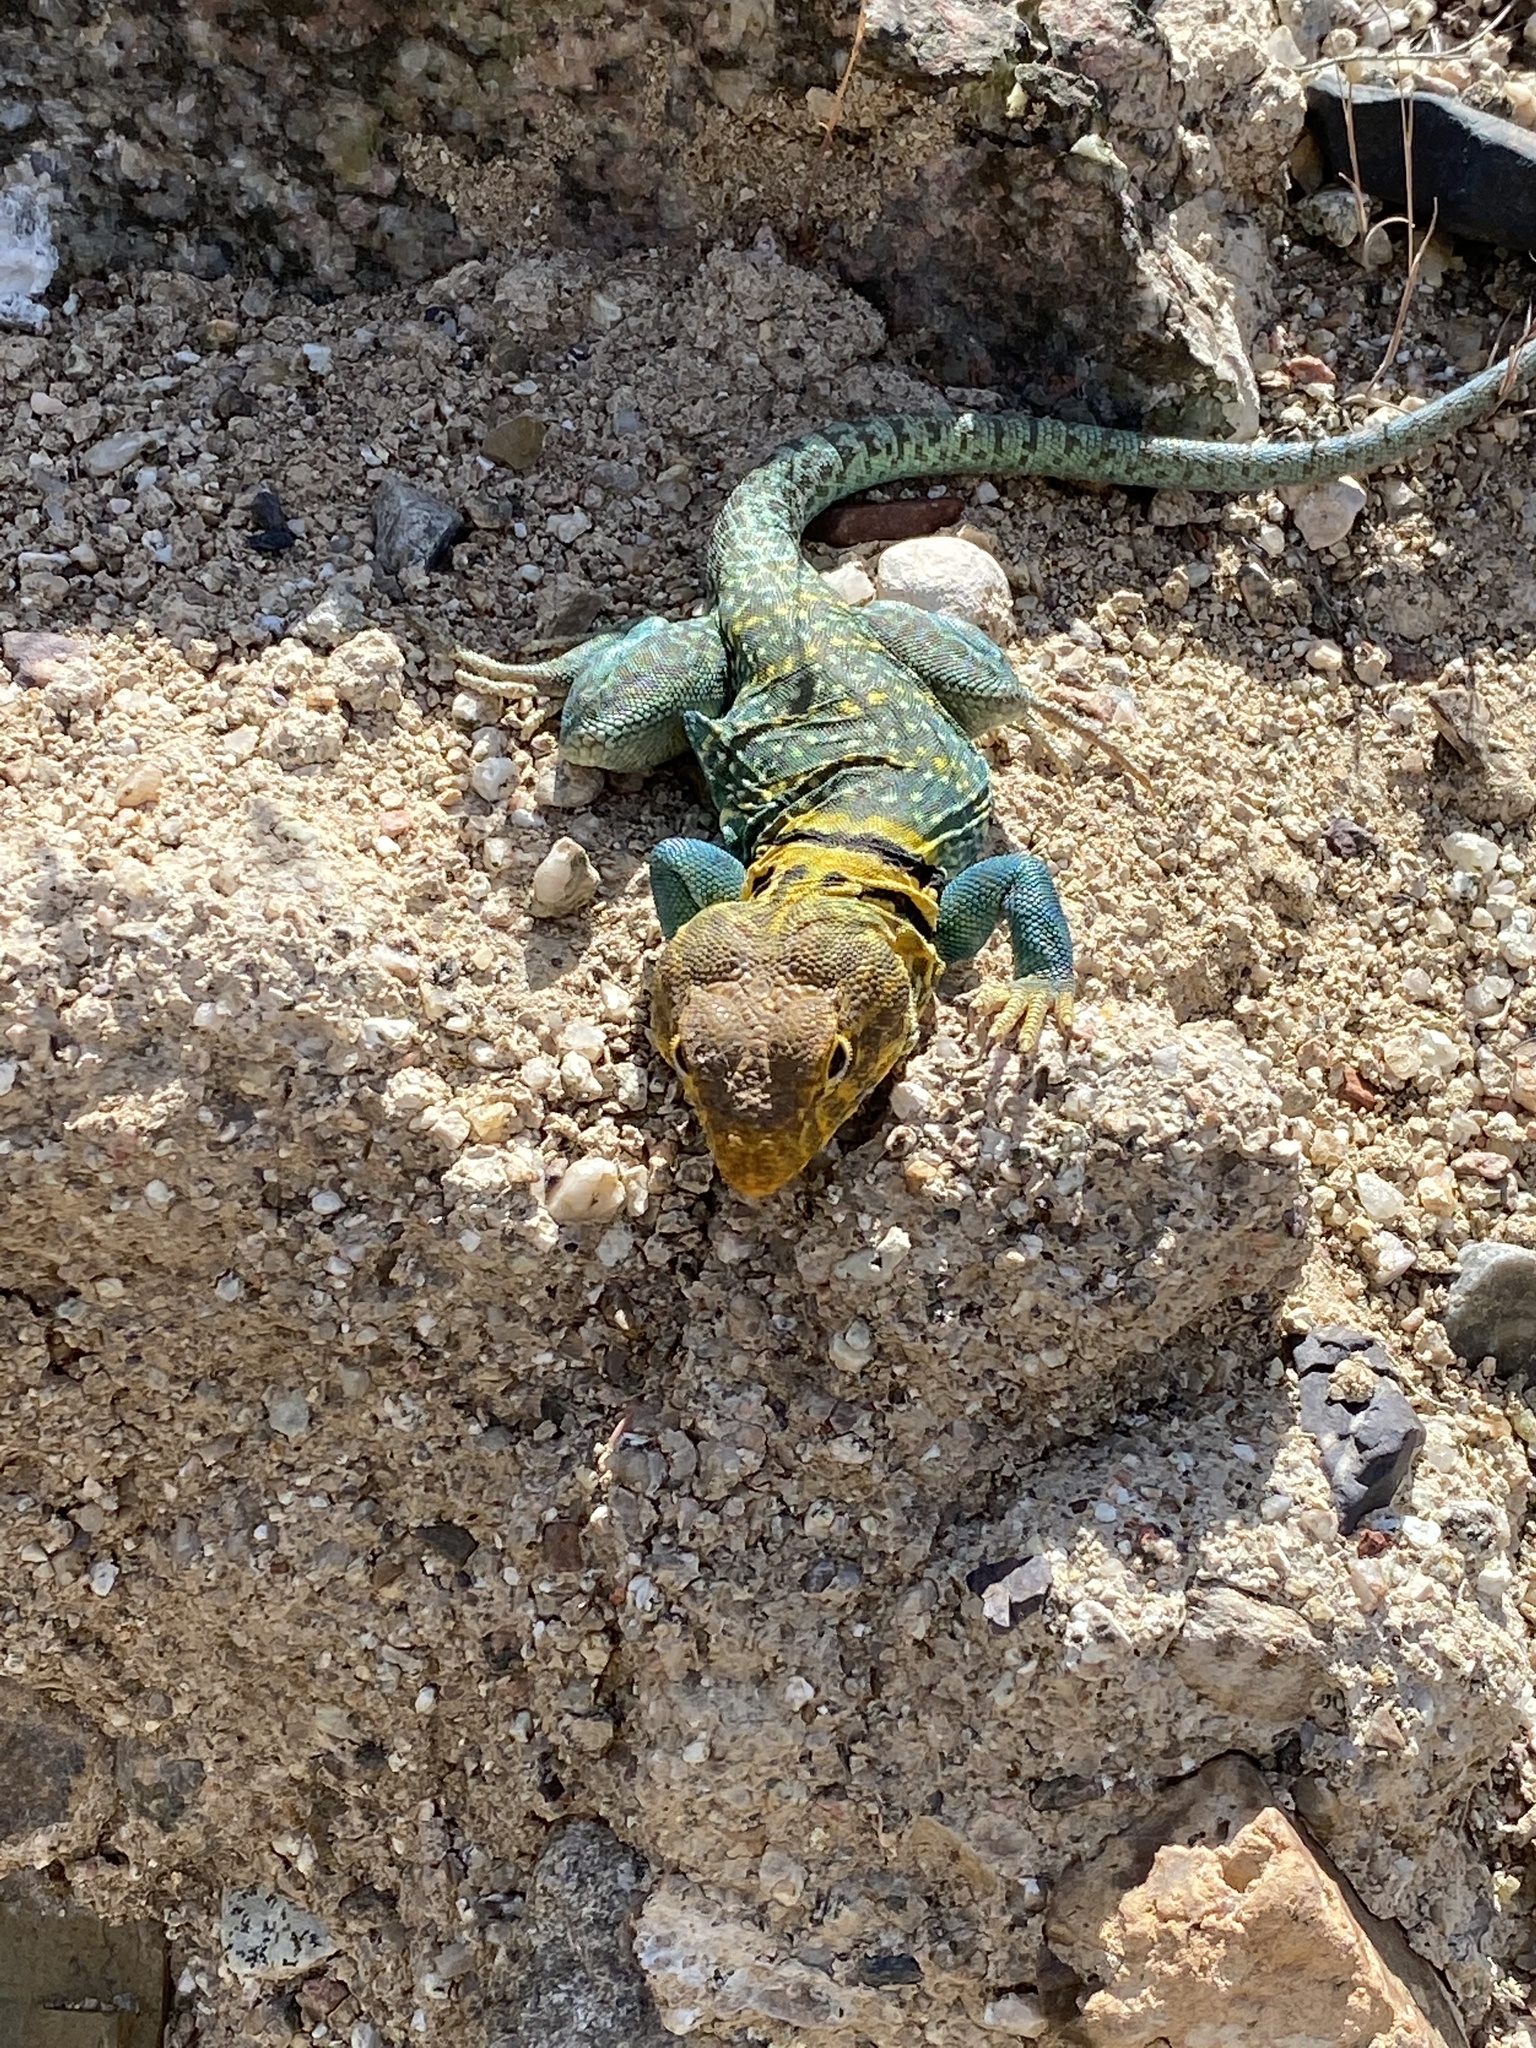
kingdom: Animalia
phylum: Chordata
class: Squamata
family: Crotaphytidae
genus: Crotaphytus
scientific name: Crotaphytus collaris
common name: Collared lizard
